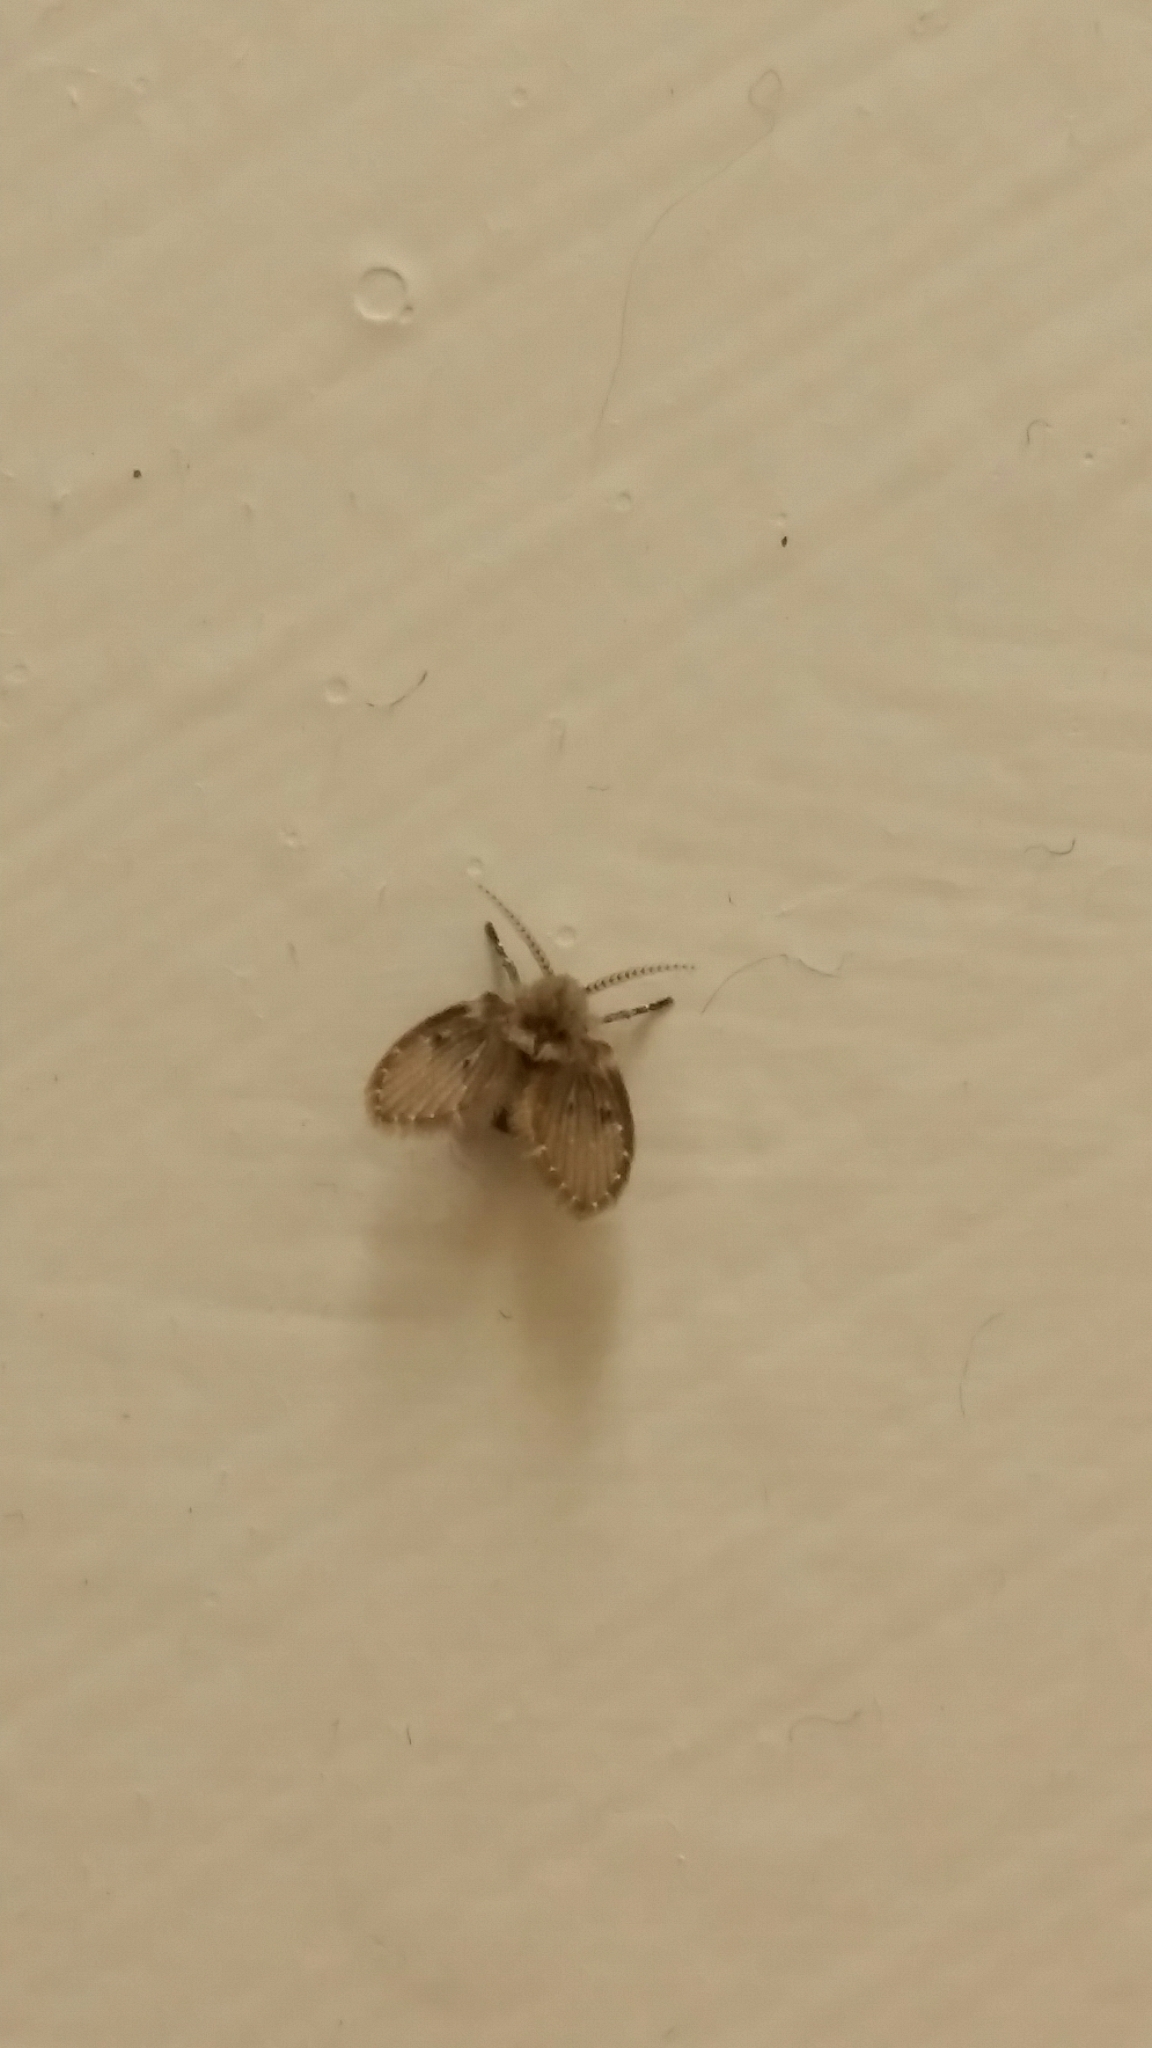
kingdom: Animalia
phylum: Arthropoda
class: Insecta
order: Diptera
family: Psychodidae
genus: Clogmia
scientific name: Clogmia albipunctatus
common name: White-spotted moth fly
